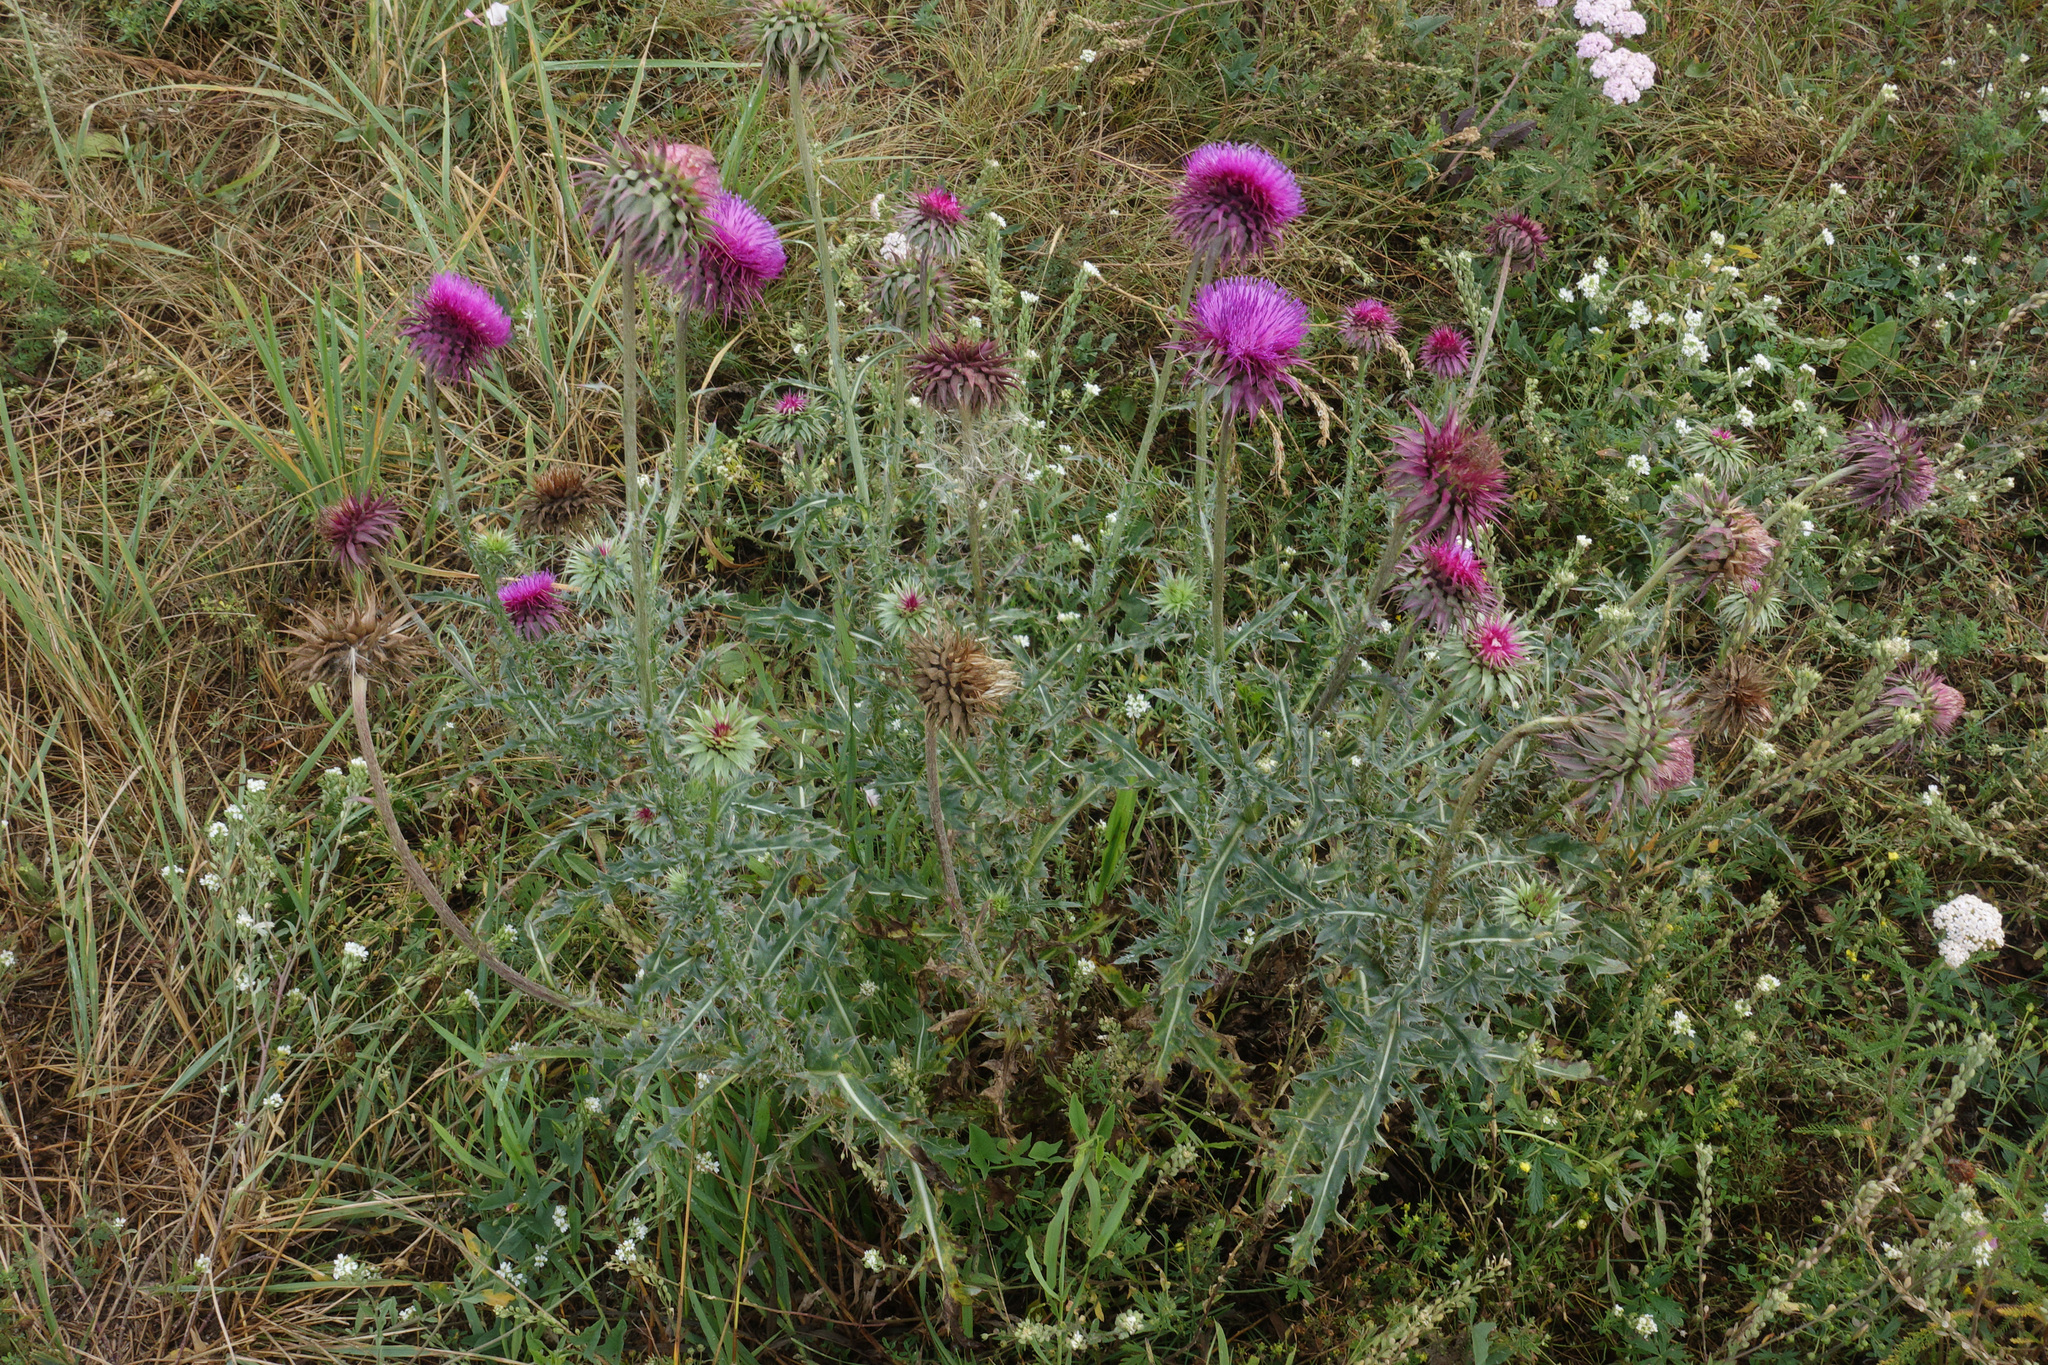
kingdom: Plantae
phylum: Tracheophyta
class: Magnoliopsida
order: Asterales
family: Asteraceae
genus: Carduus
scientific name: Carduus nutans
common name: Musk thistle
